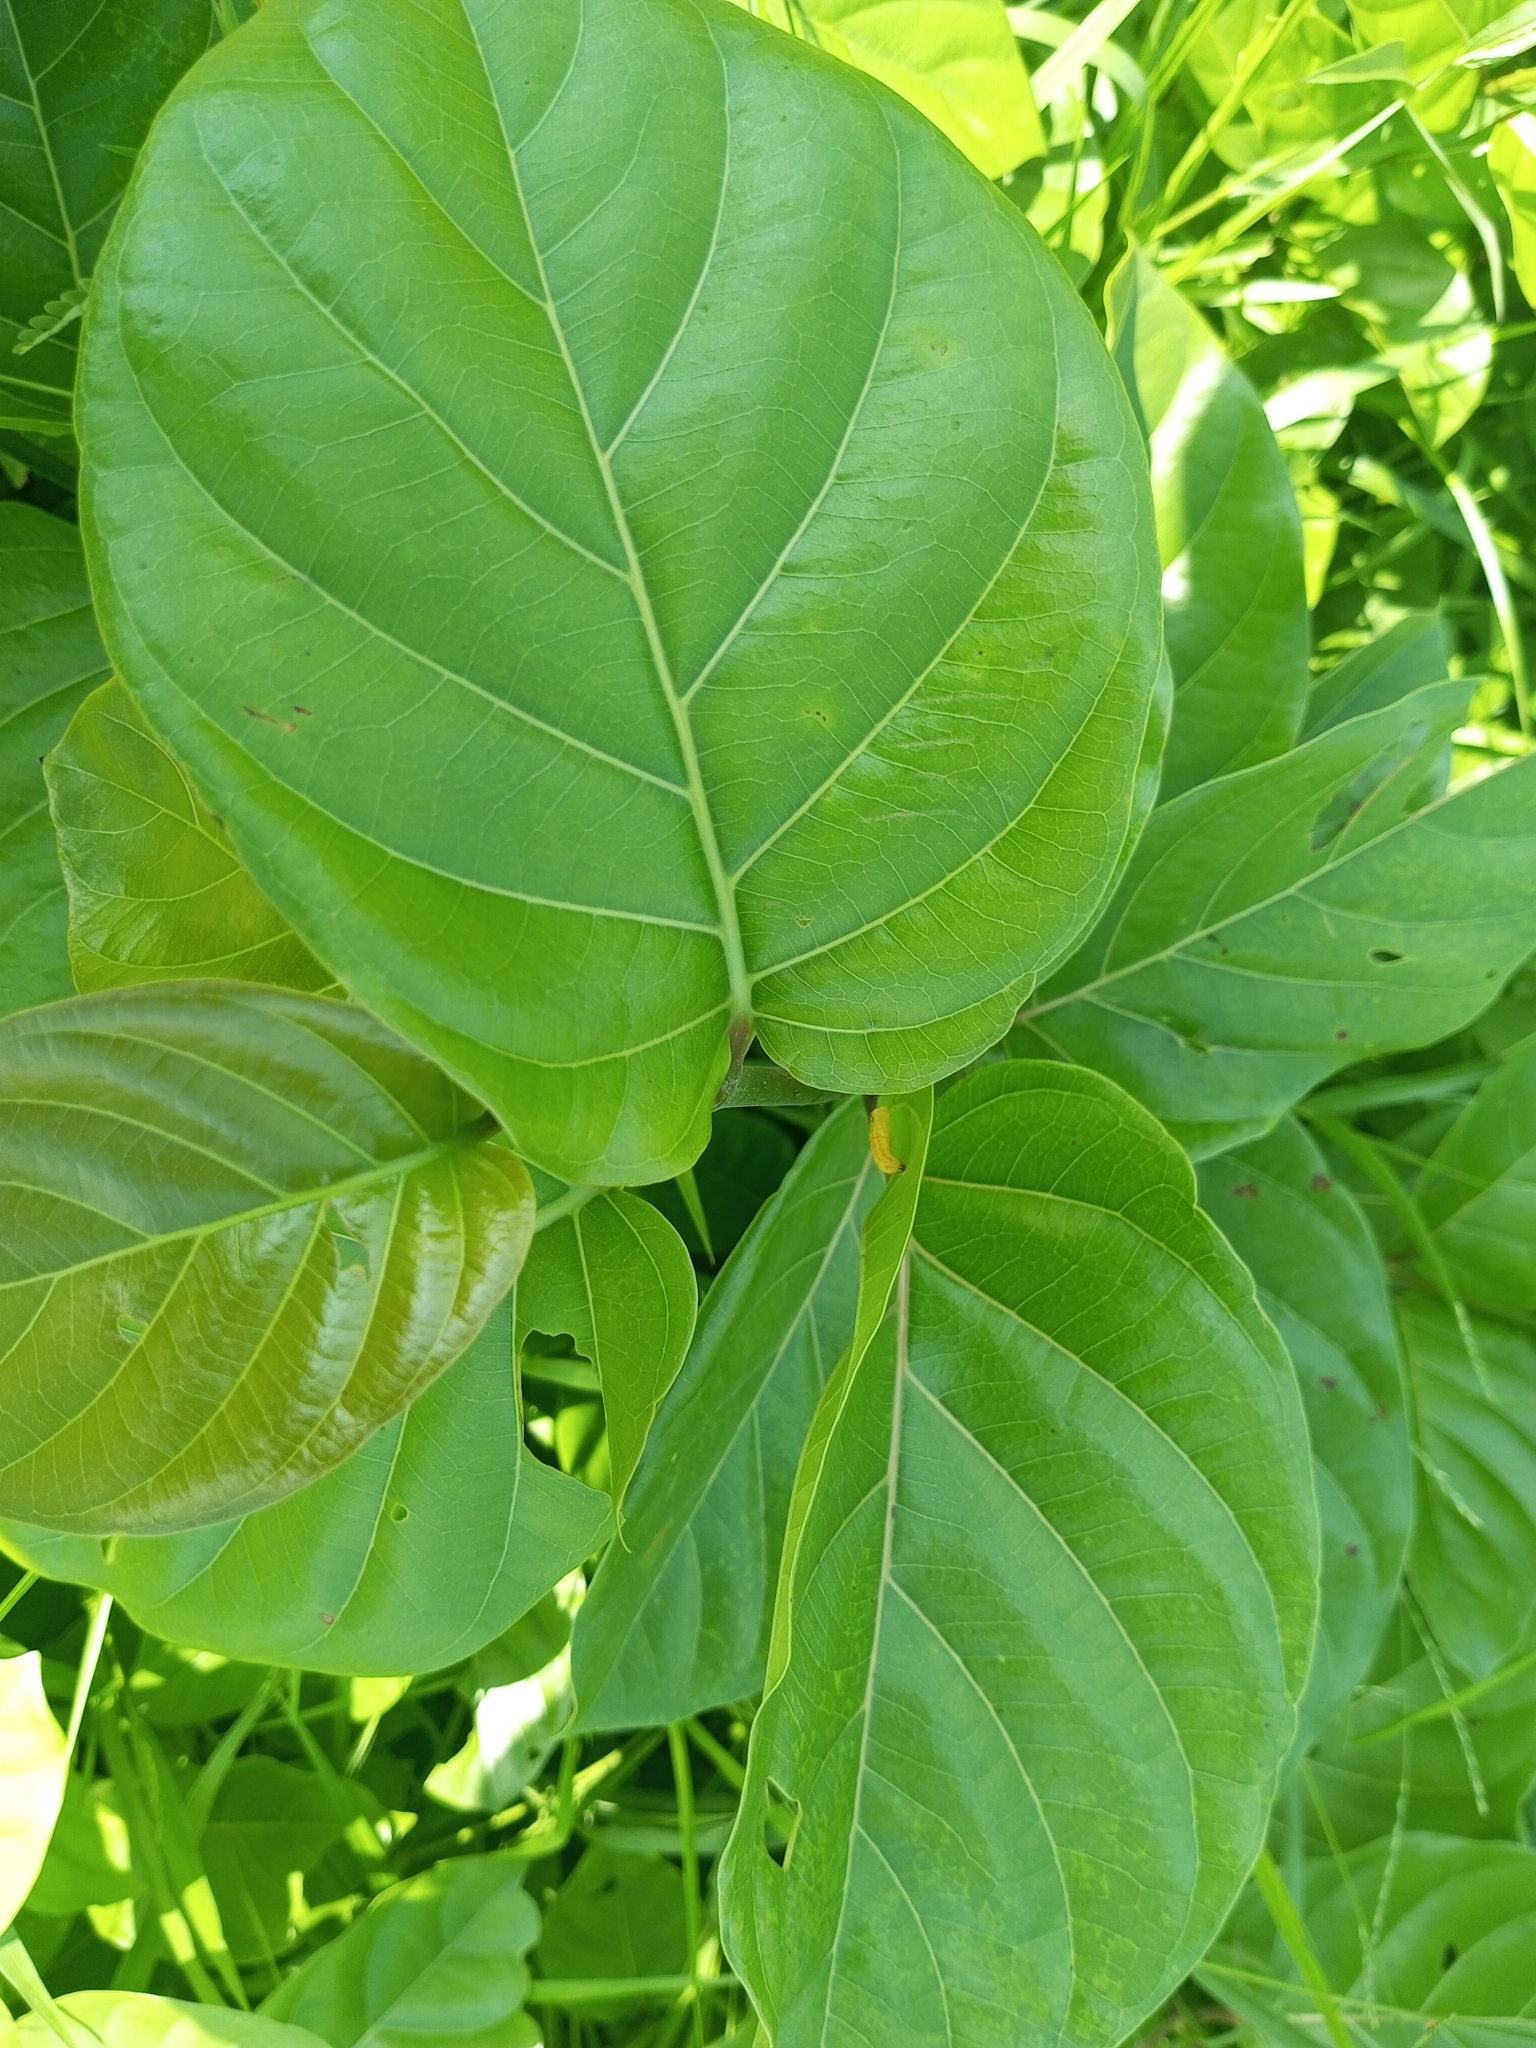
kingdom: Plantae
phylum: Tracheophyta
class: Magnoliopsida
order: Gentianales
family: Rubiaceae
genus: Nauclea
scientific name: Nauclea latifolia
